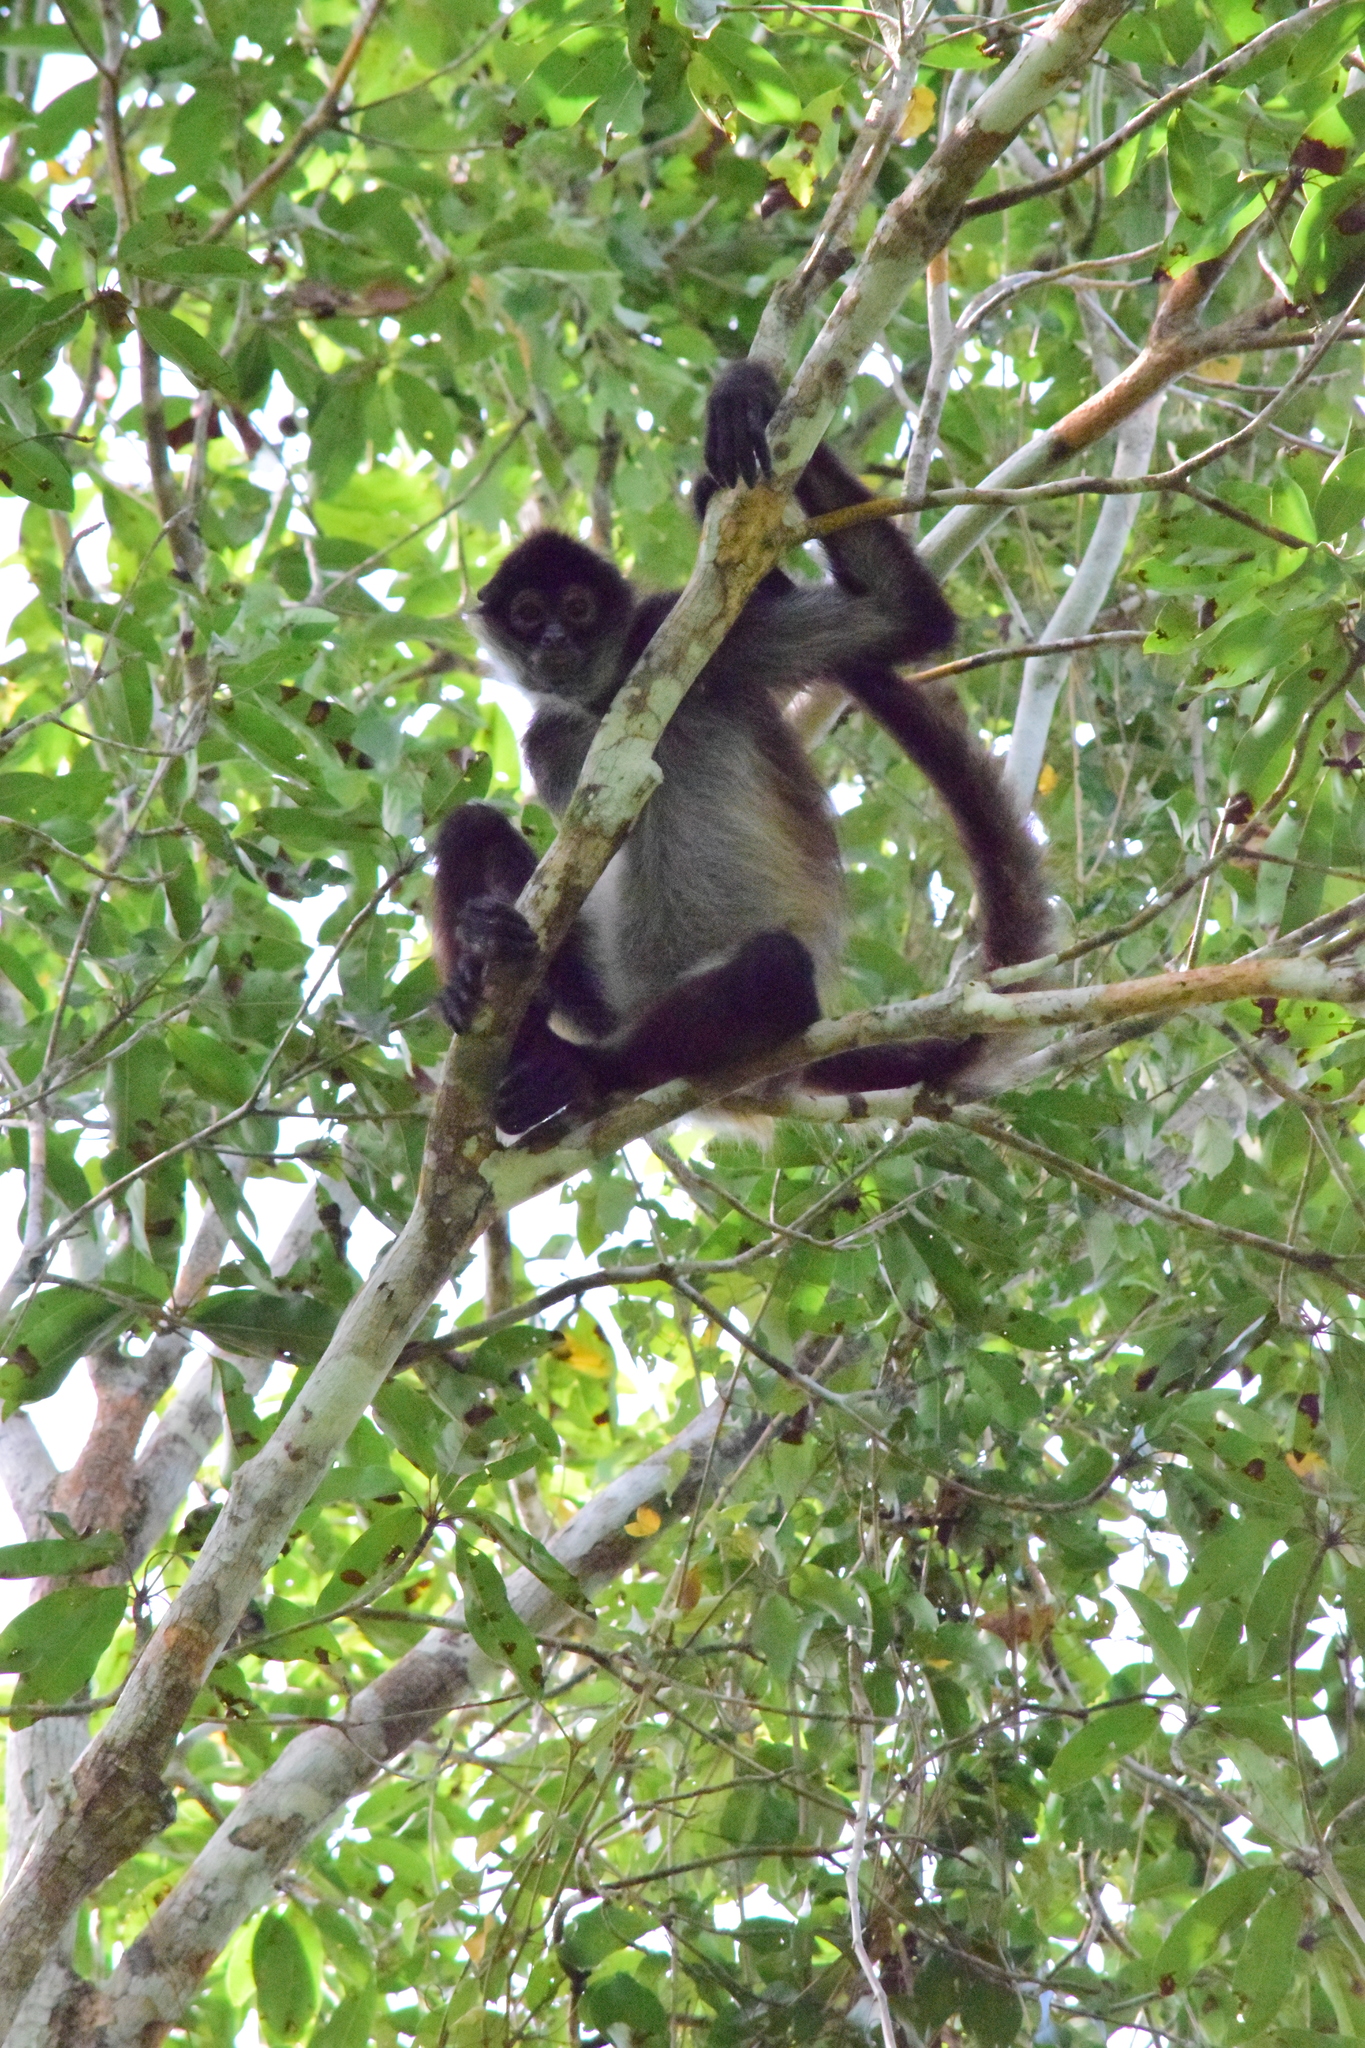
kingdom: Animalia
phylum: Chordata
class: Mammalia
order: Primates
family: Atelidae
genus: Ateles
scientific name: Ateles geoffroyi
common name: Black-handed spider monkey
